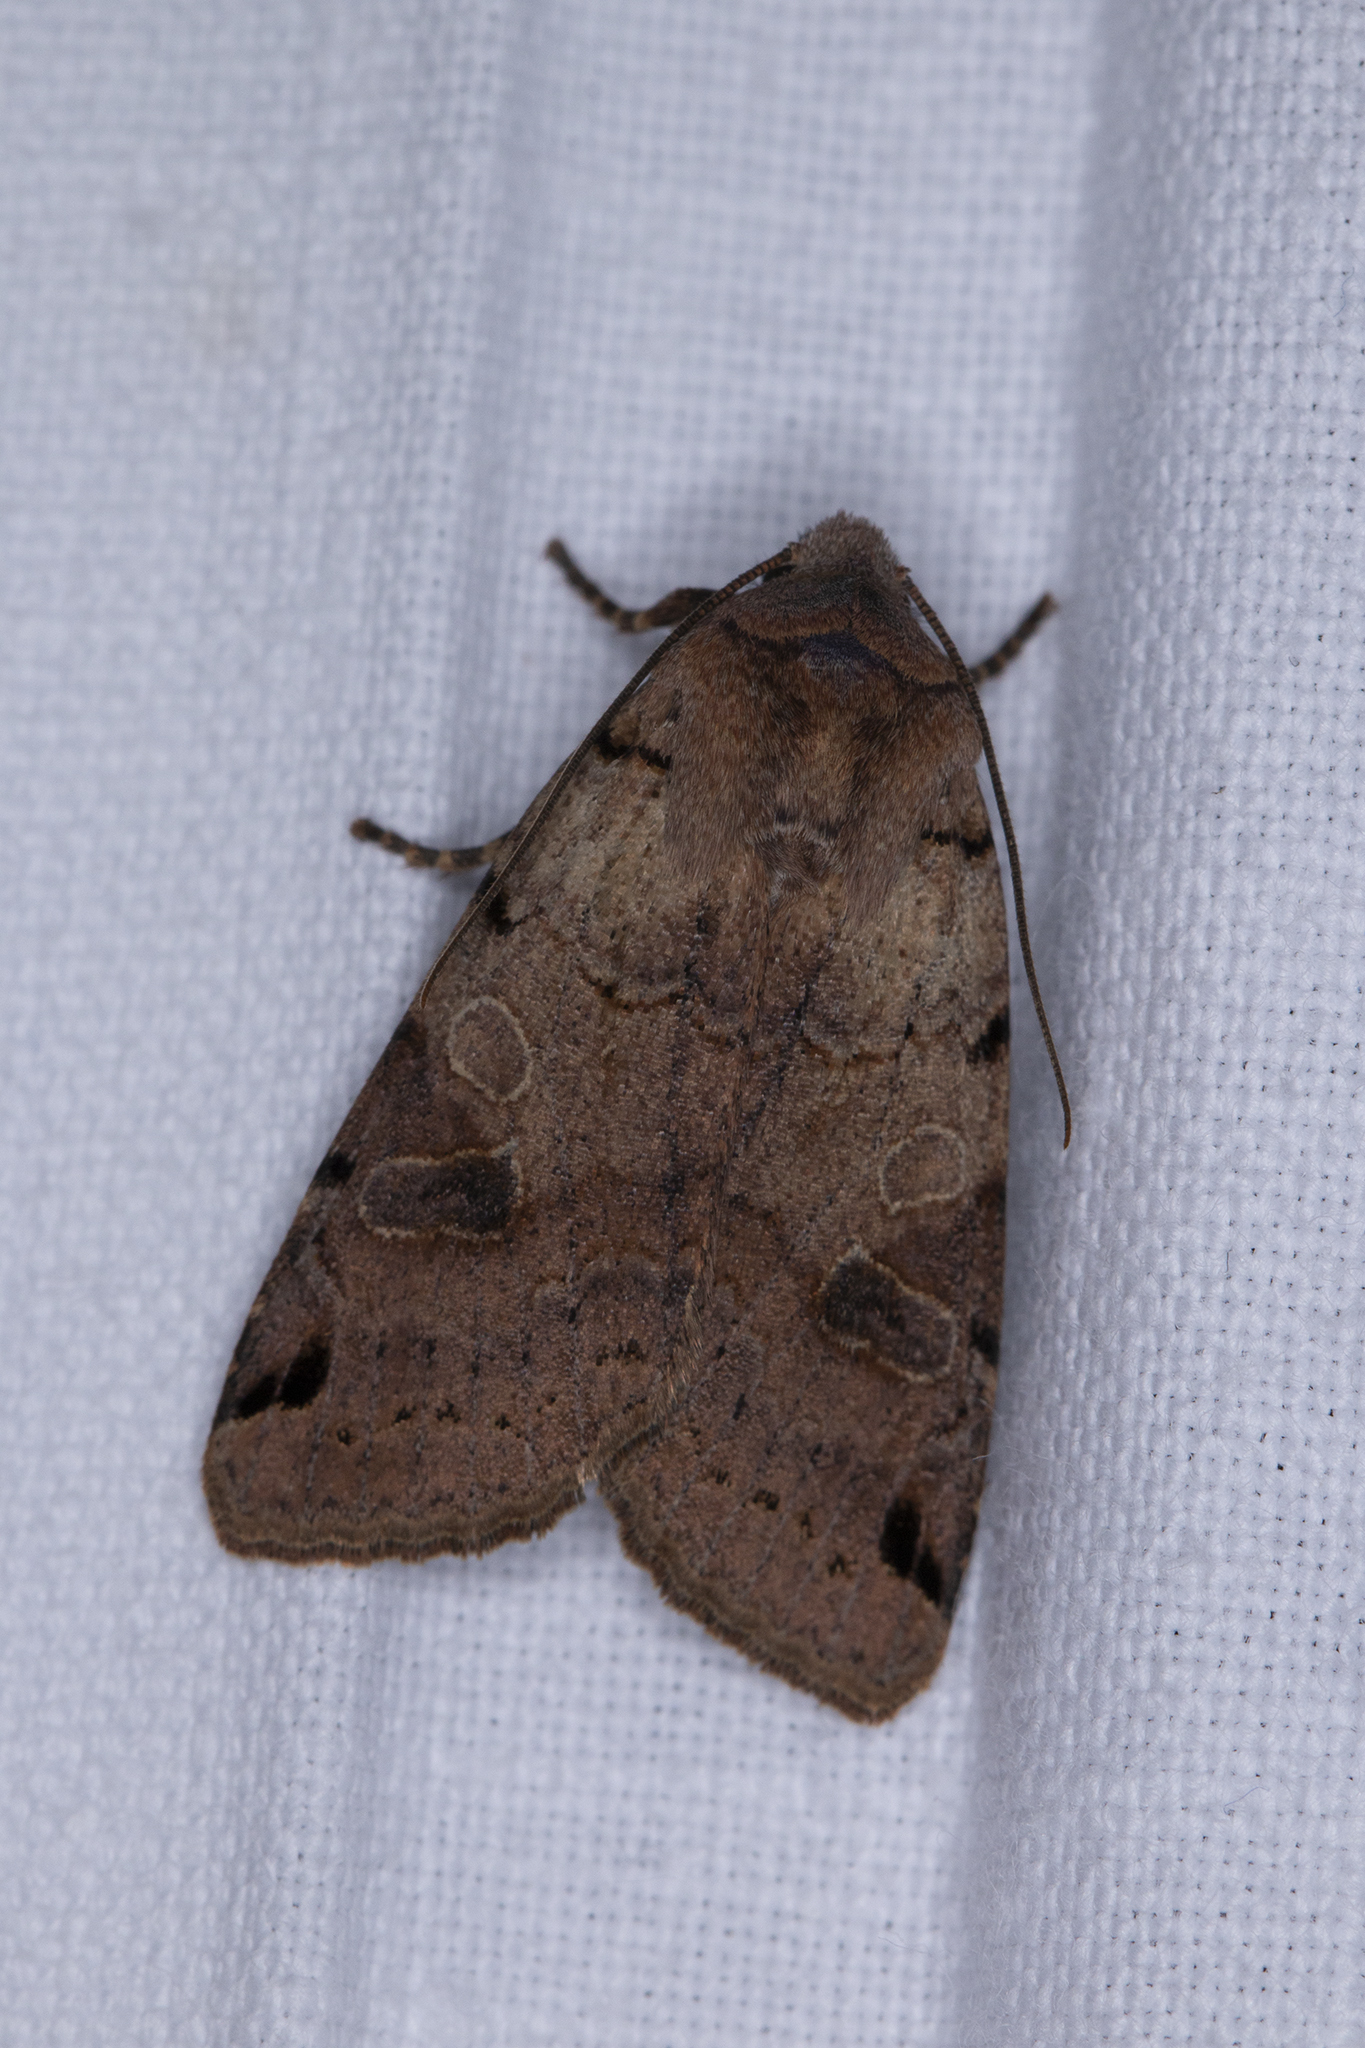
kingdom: Animalia
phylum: Arthropoda
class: Insecta
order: Lepidoptera
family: Noctuidae
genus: Agrochola
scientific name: Agrochola litura
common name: Brown-spot pinion
